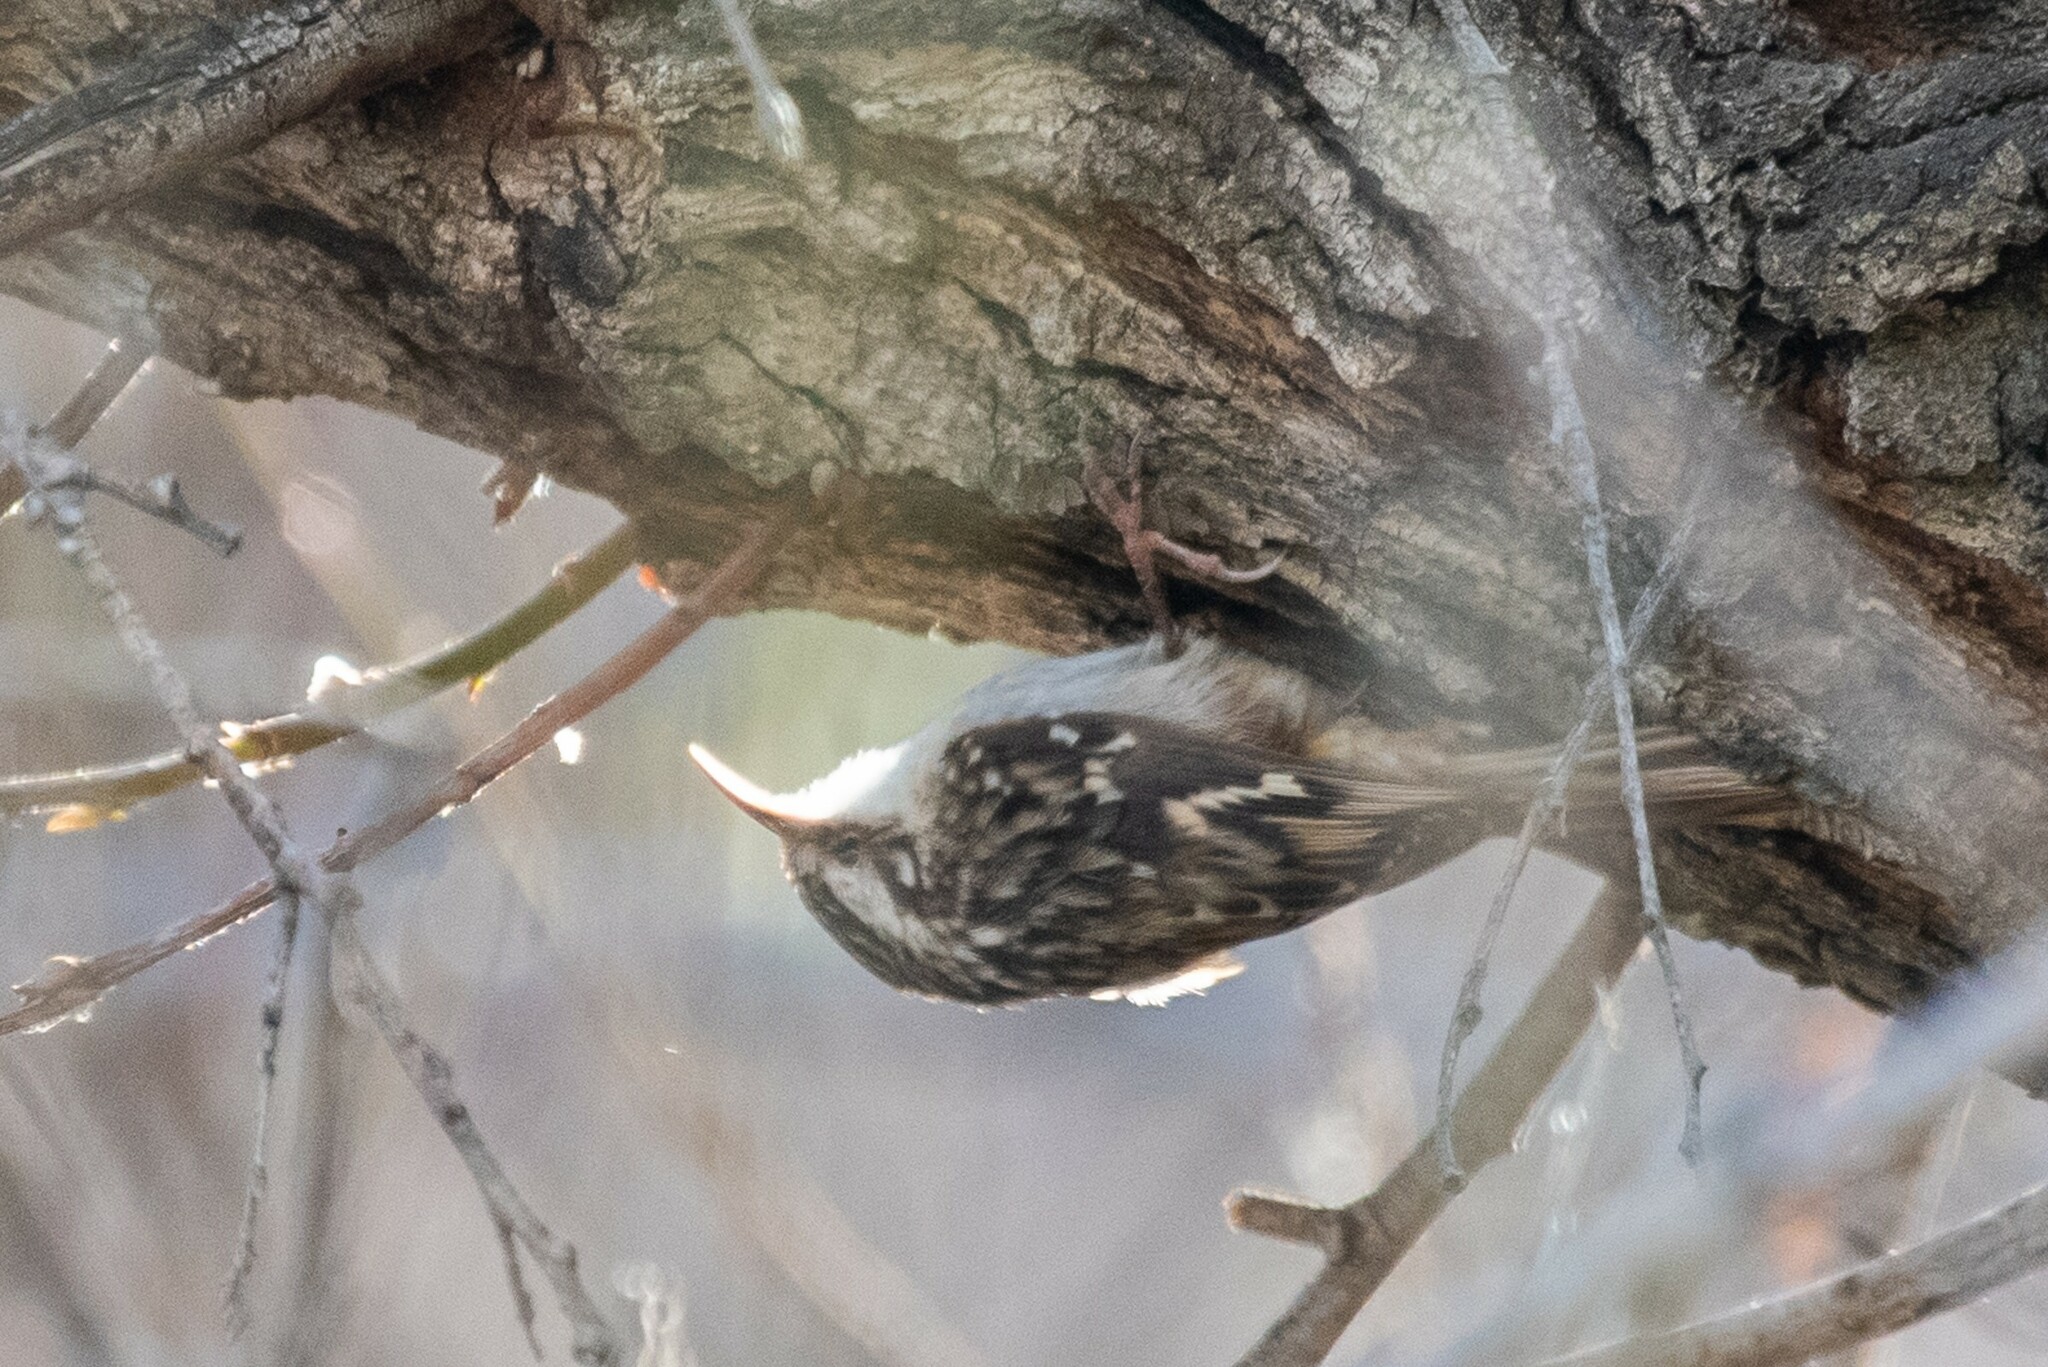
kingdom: Animalia
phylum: Chordata
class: Aves
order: Passeriformes
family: Certhiidae
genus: Certhia
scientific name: Certhia americana
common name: Brown creeper
